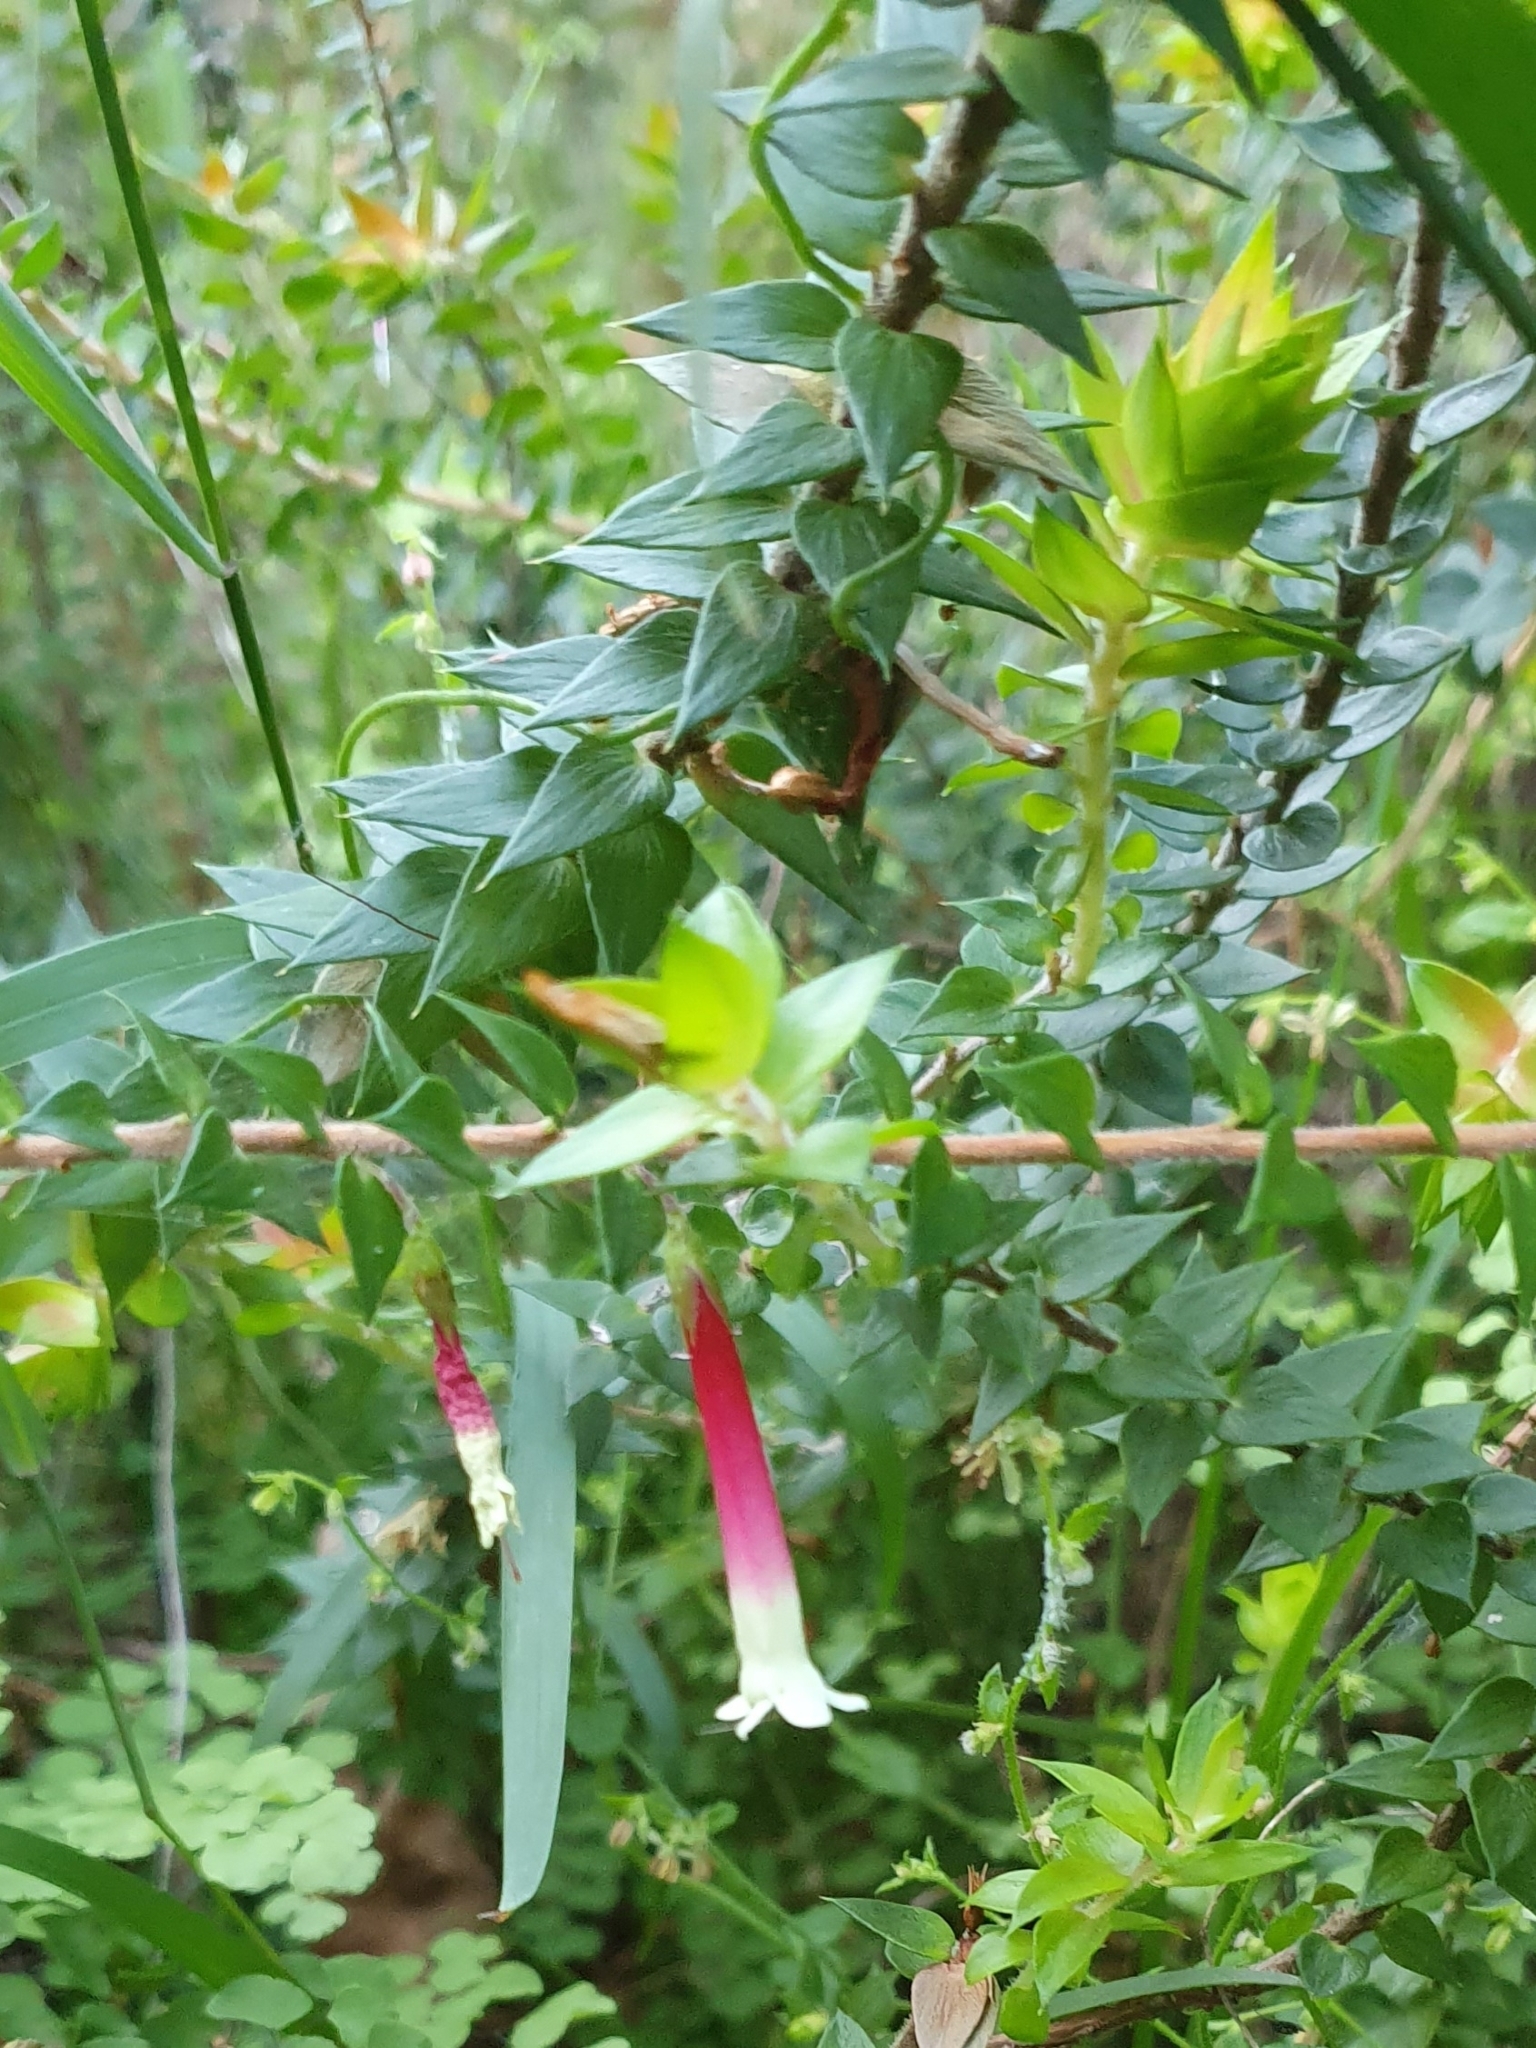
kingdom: Plantae
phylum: Tracheophyta
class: Magnoliopsida
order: Ericales
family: Ericaceae
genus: Epacris
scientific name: Epacris longiflora
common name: Fuchsia-heath
